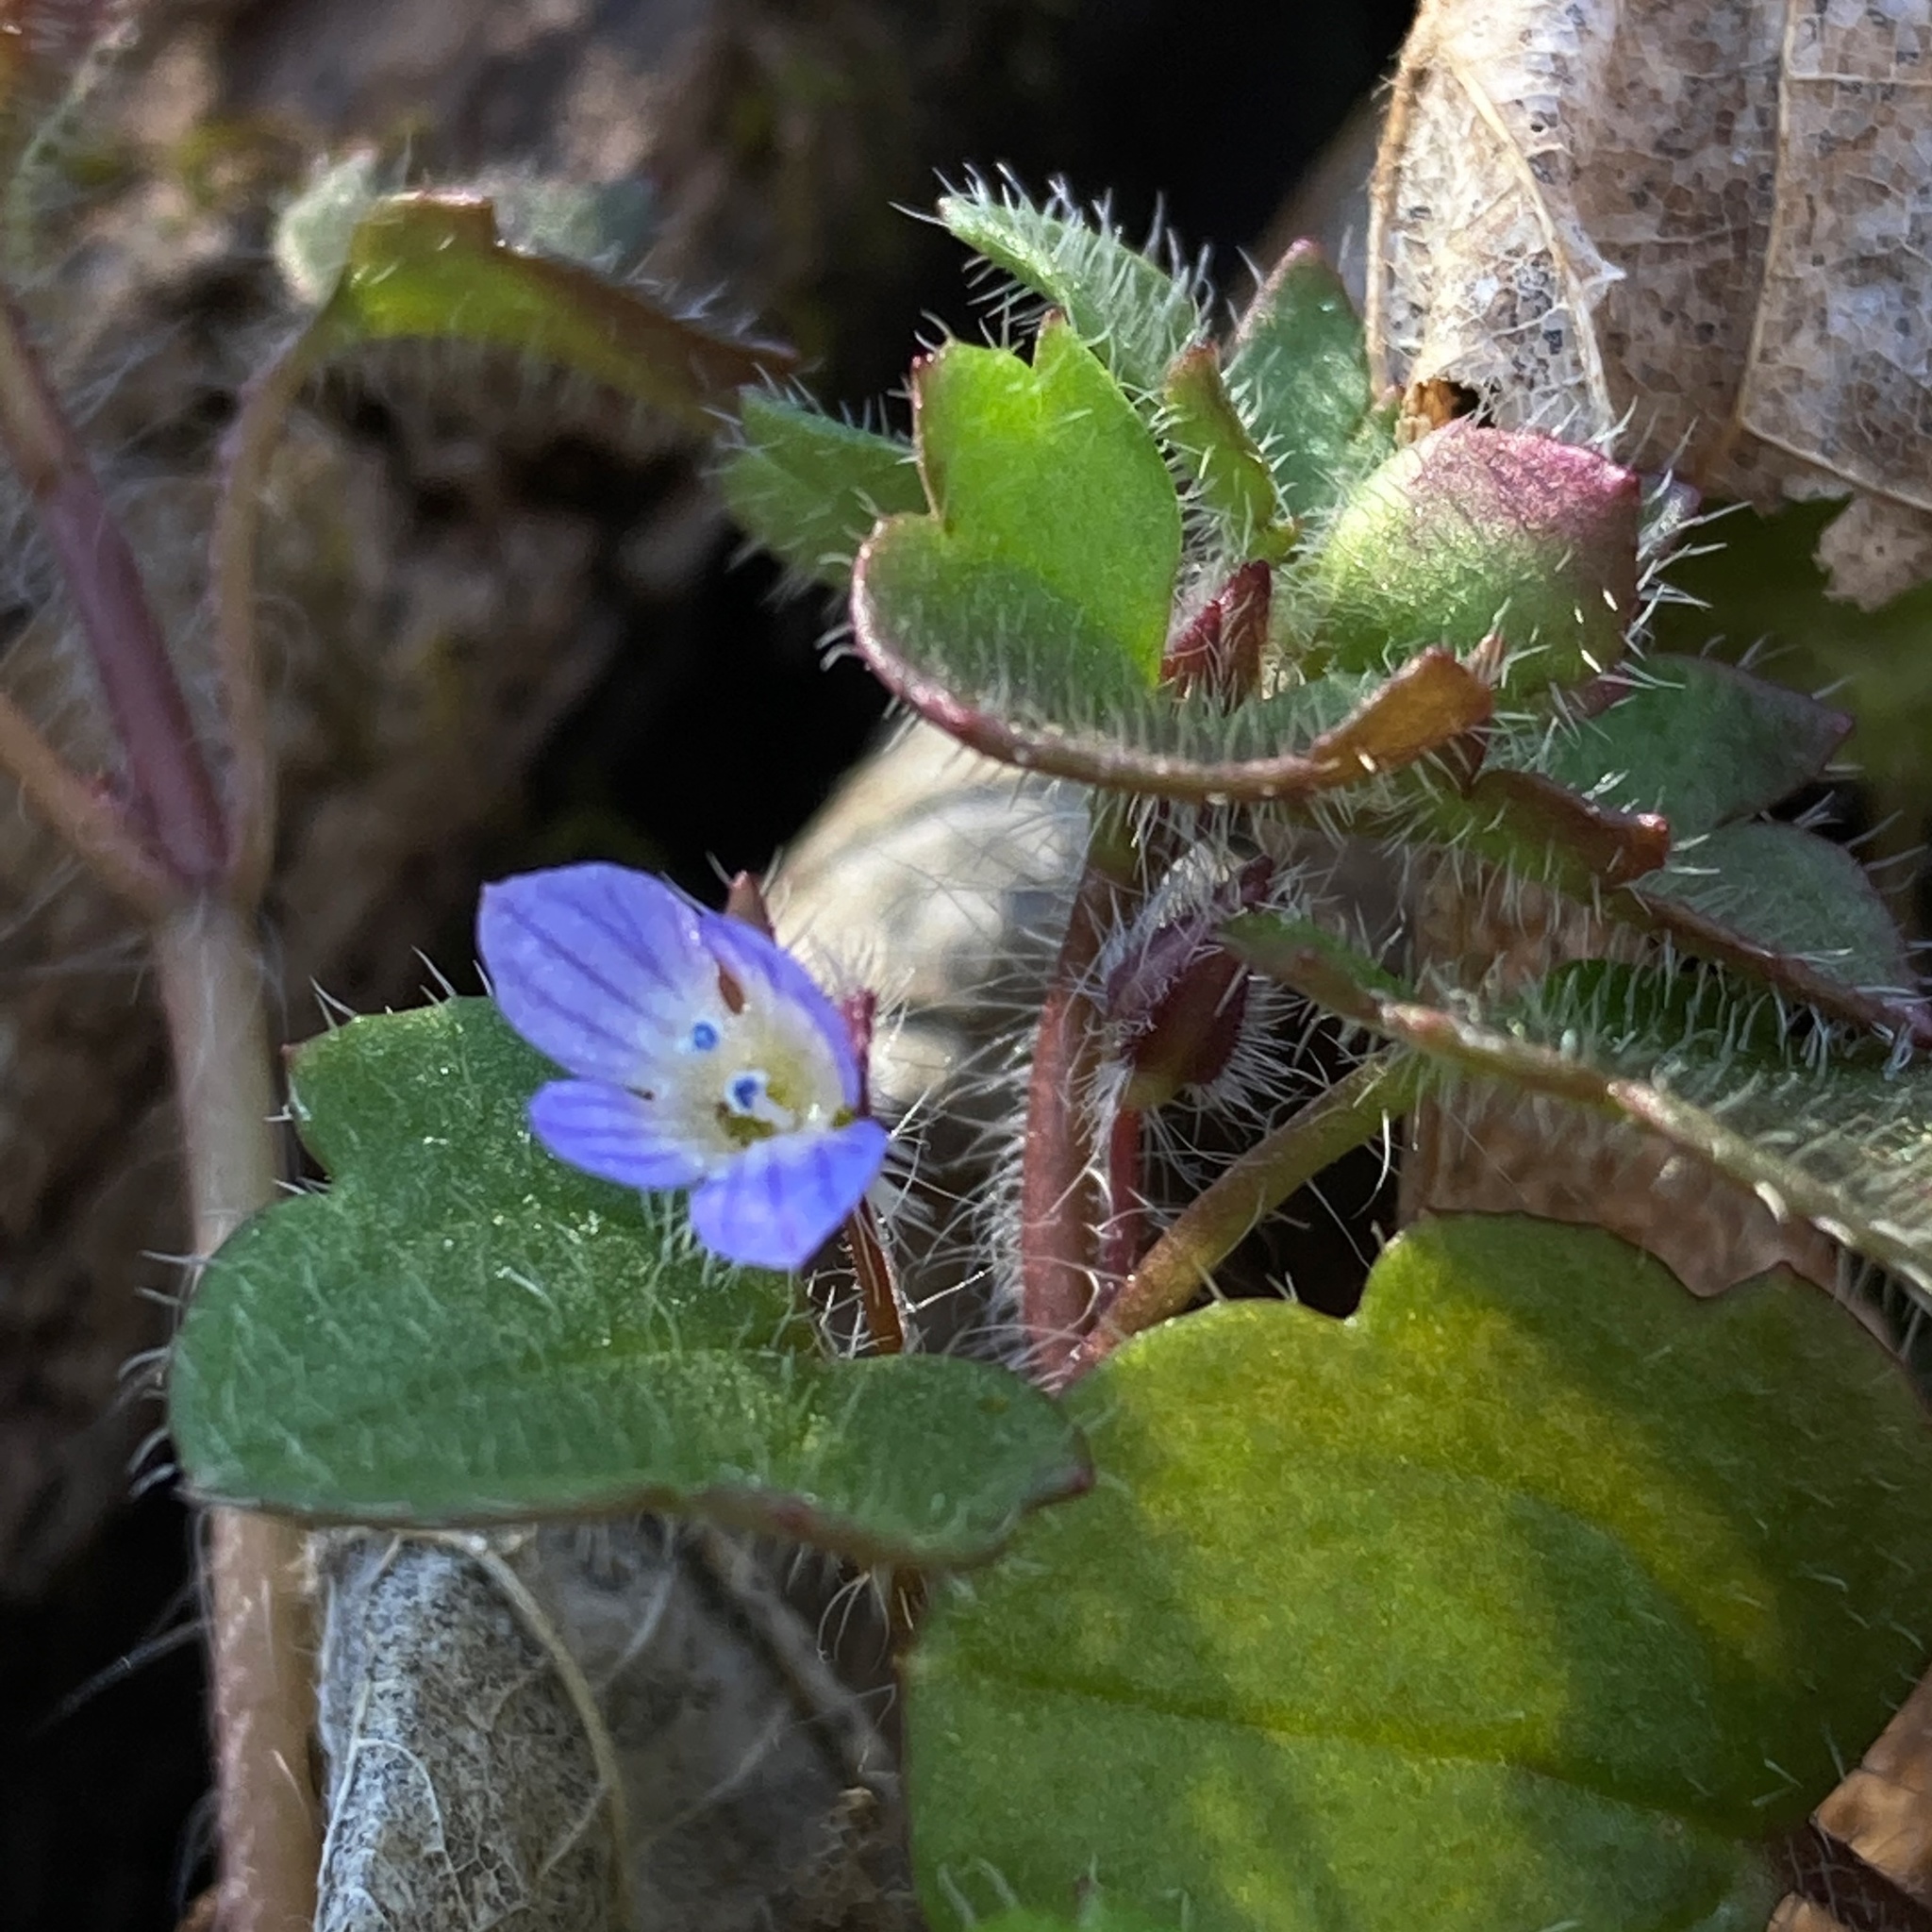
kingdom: Plantae
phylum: Tracheophyta
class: Magnoliopsida
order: Lamiales
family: Plantaginaceae
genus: Veronica
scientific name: Veronica hederifolia
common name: Ivy-leaved speedwell
